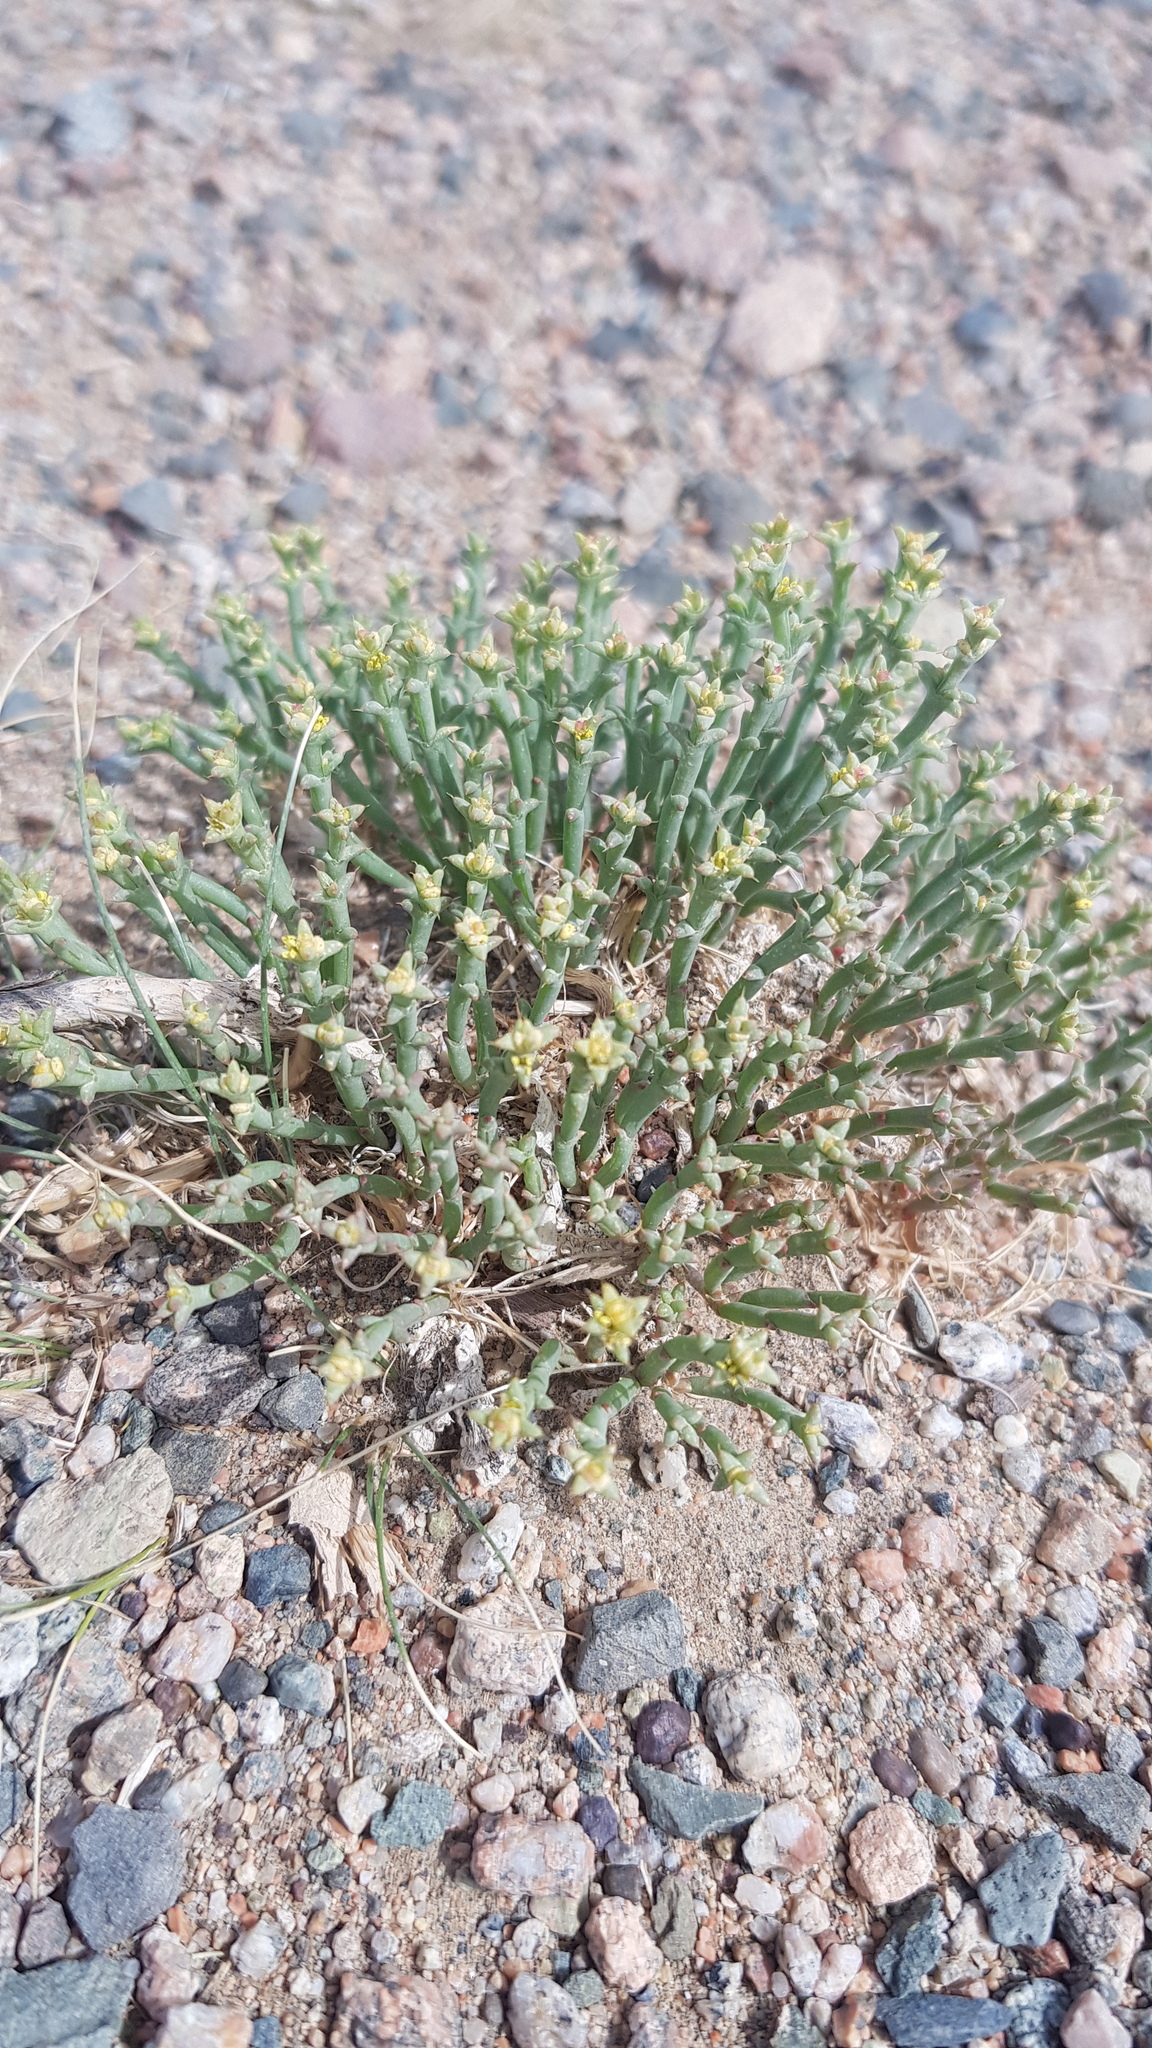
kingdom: Plantae
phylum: Tracheophyta
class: Magnoliopsida
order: Caryophyllales
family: Amaranthaceae
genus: Anabasis
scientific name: Anabasis brevifolia
